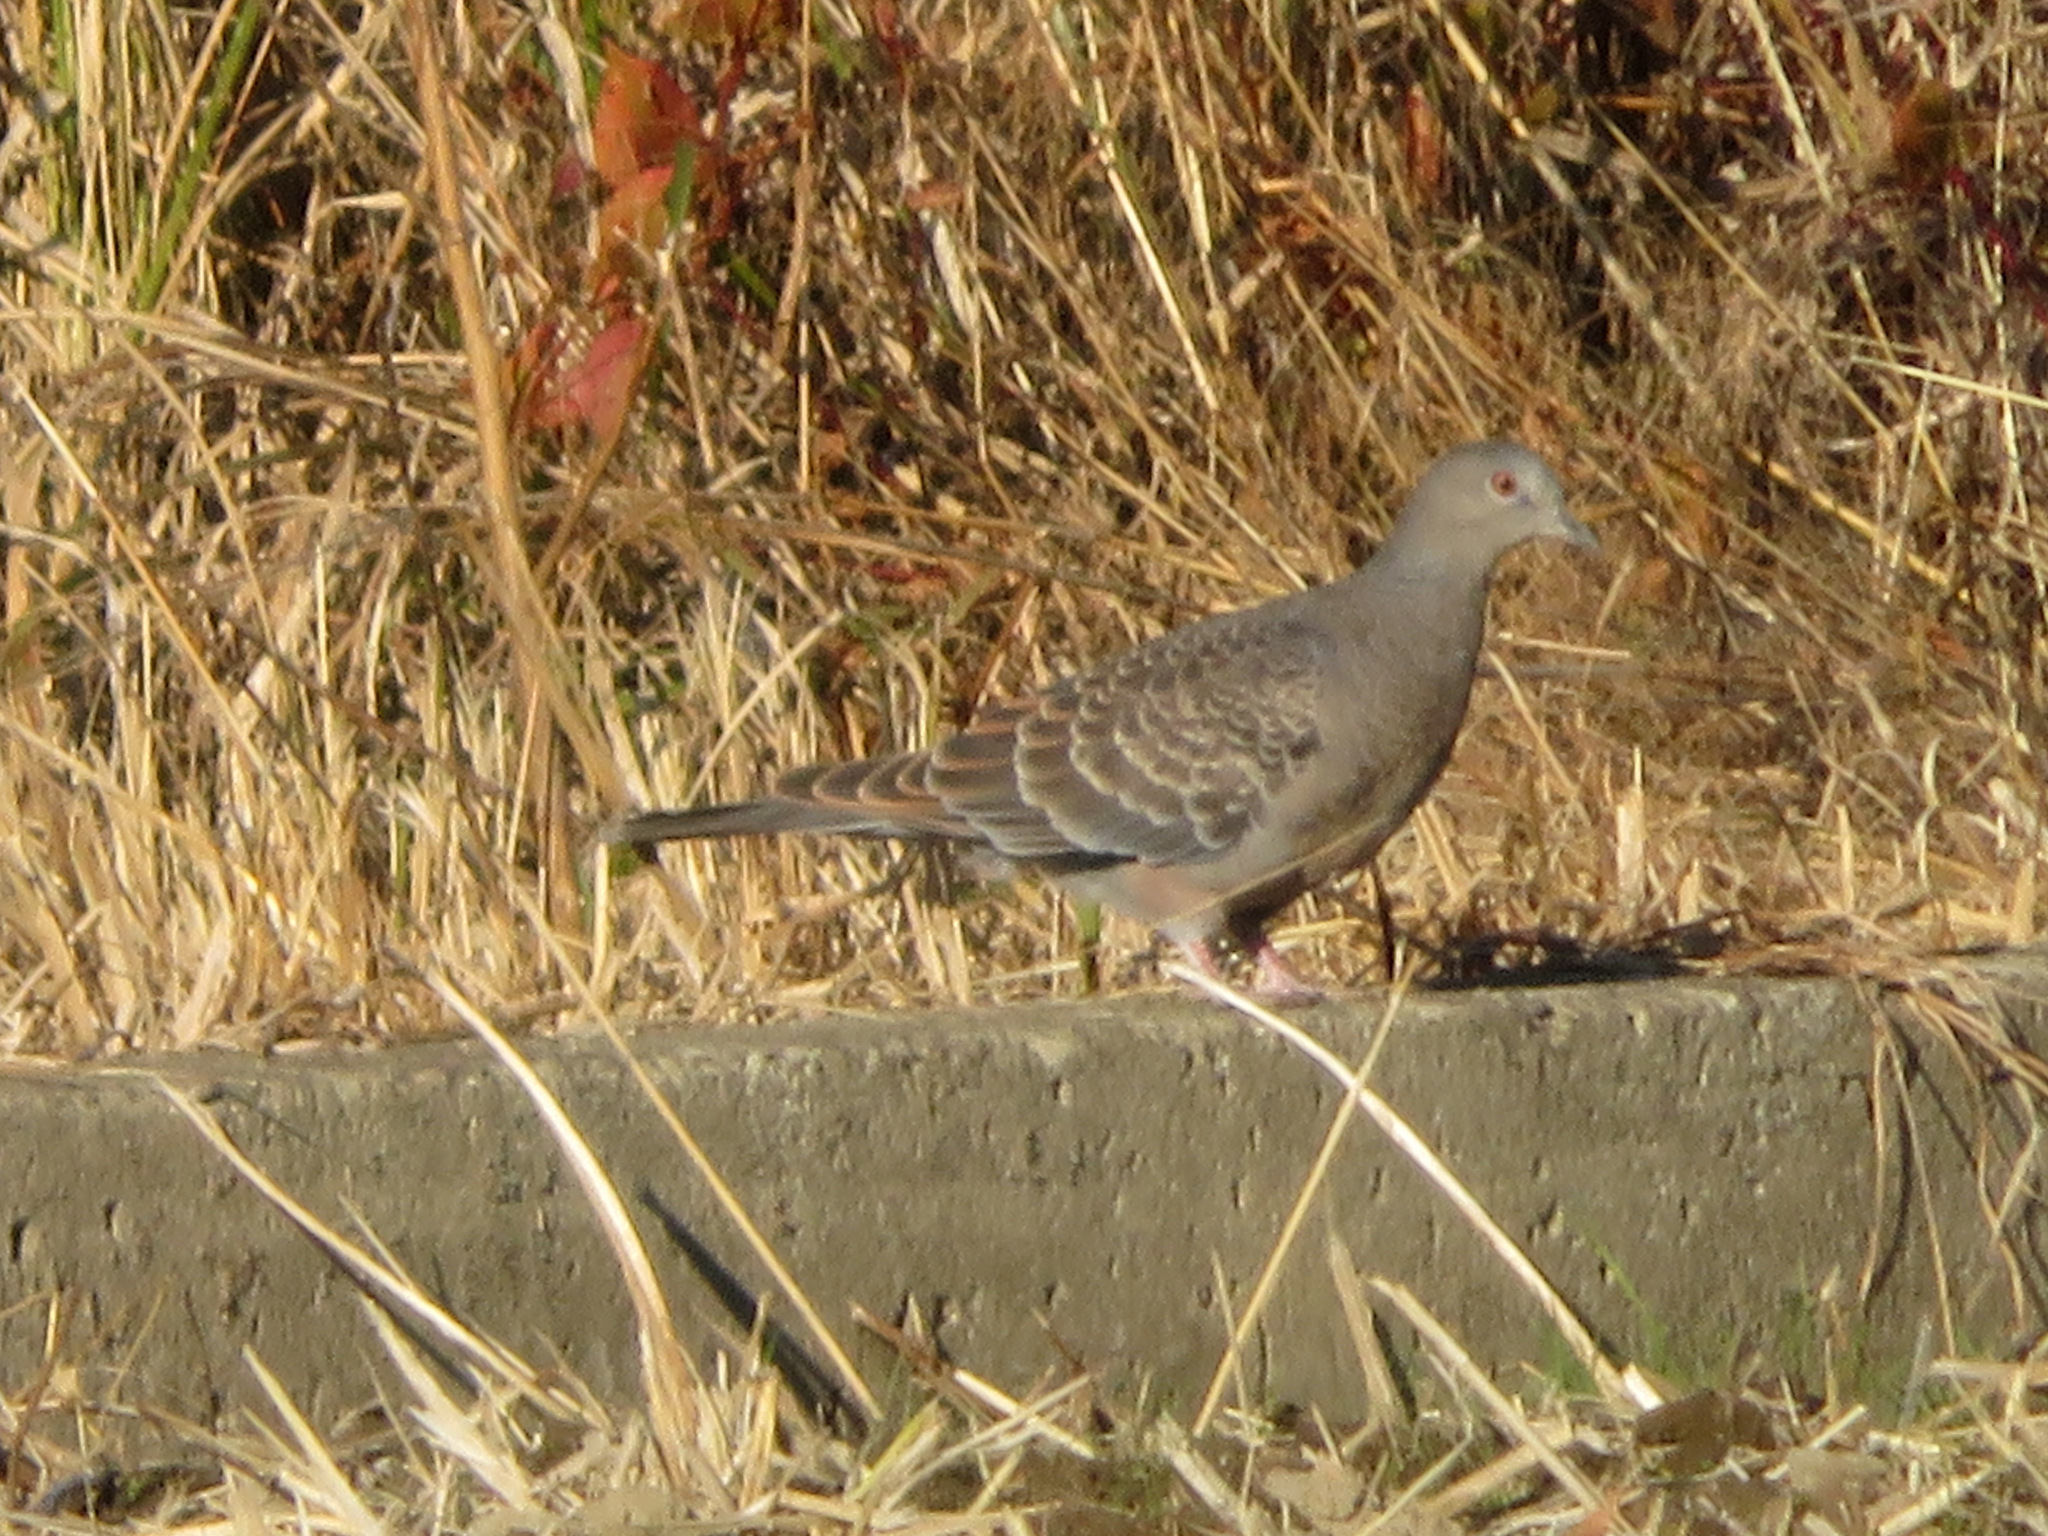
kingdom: Animalia
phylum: Chordata
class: Aves
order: Columbiformes
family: Columbidae
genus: Streptopelia
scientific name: Streptopelia orientalis
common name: Oriental turtle dove
